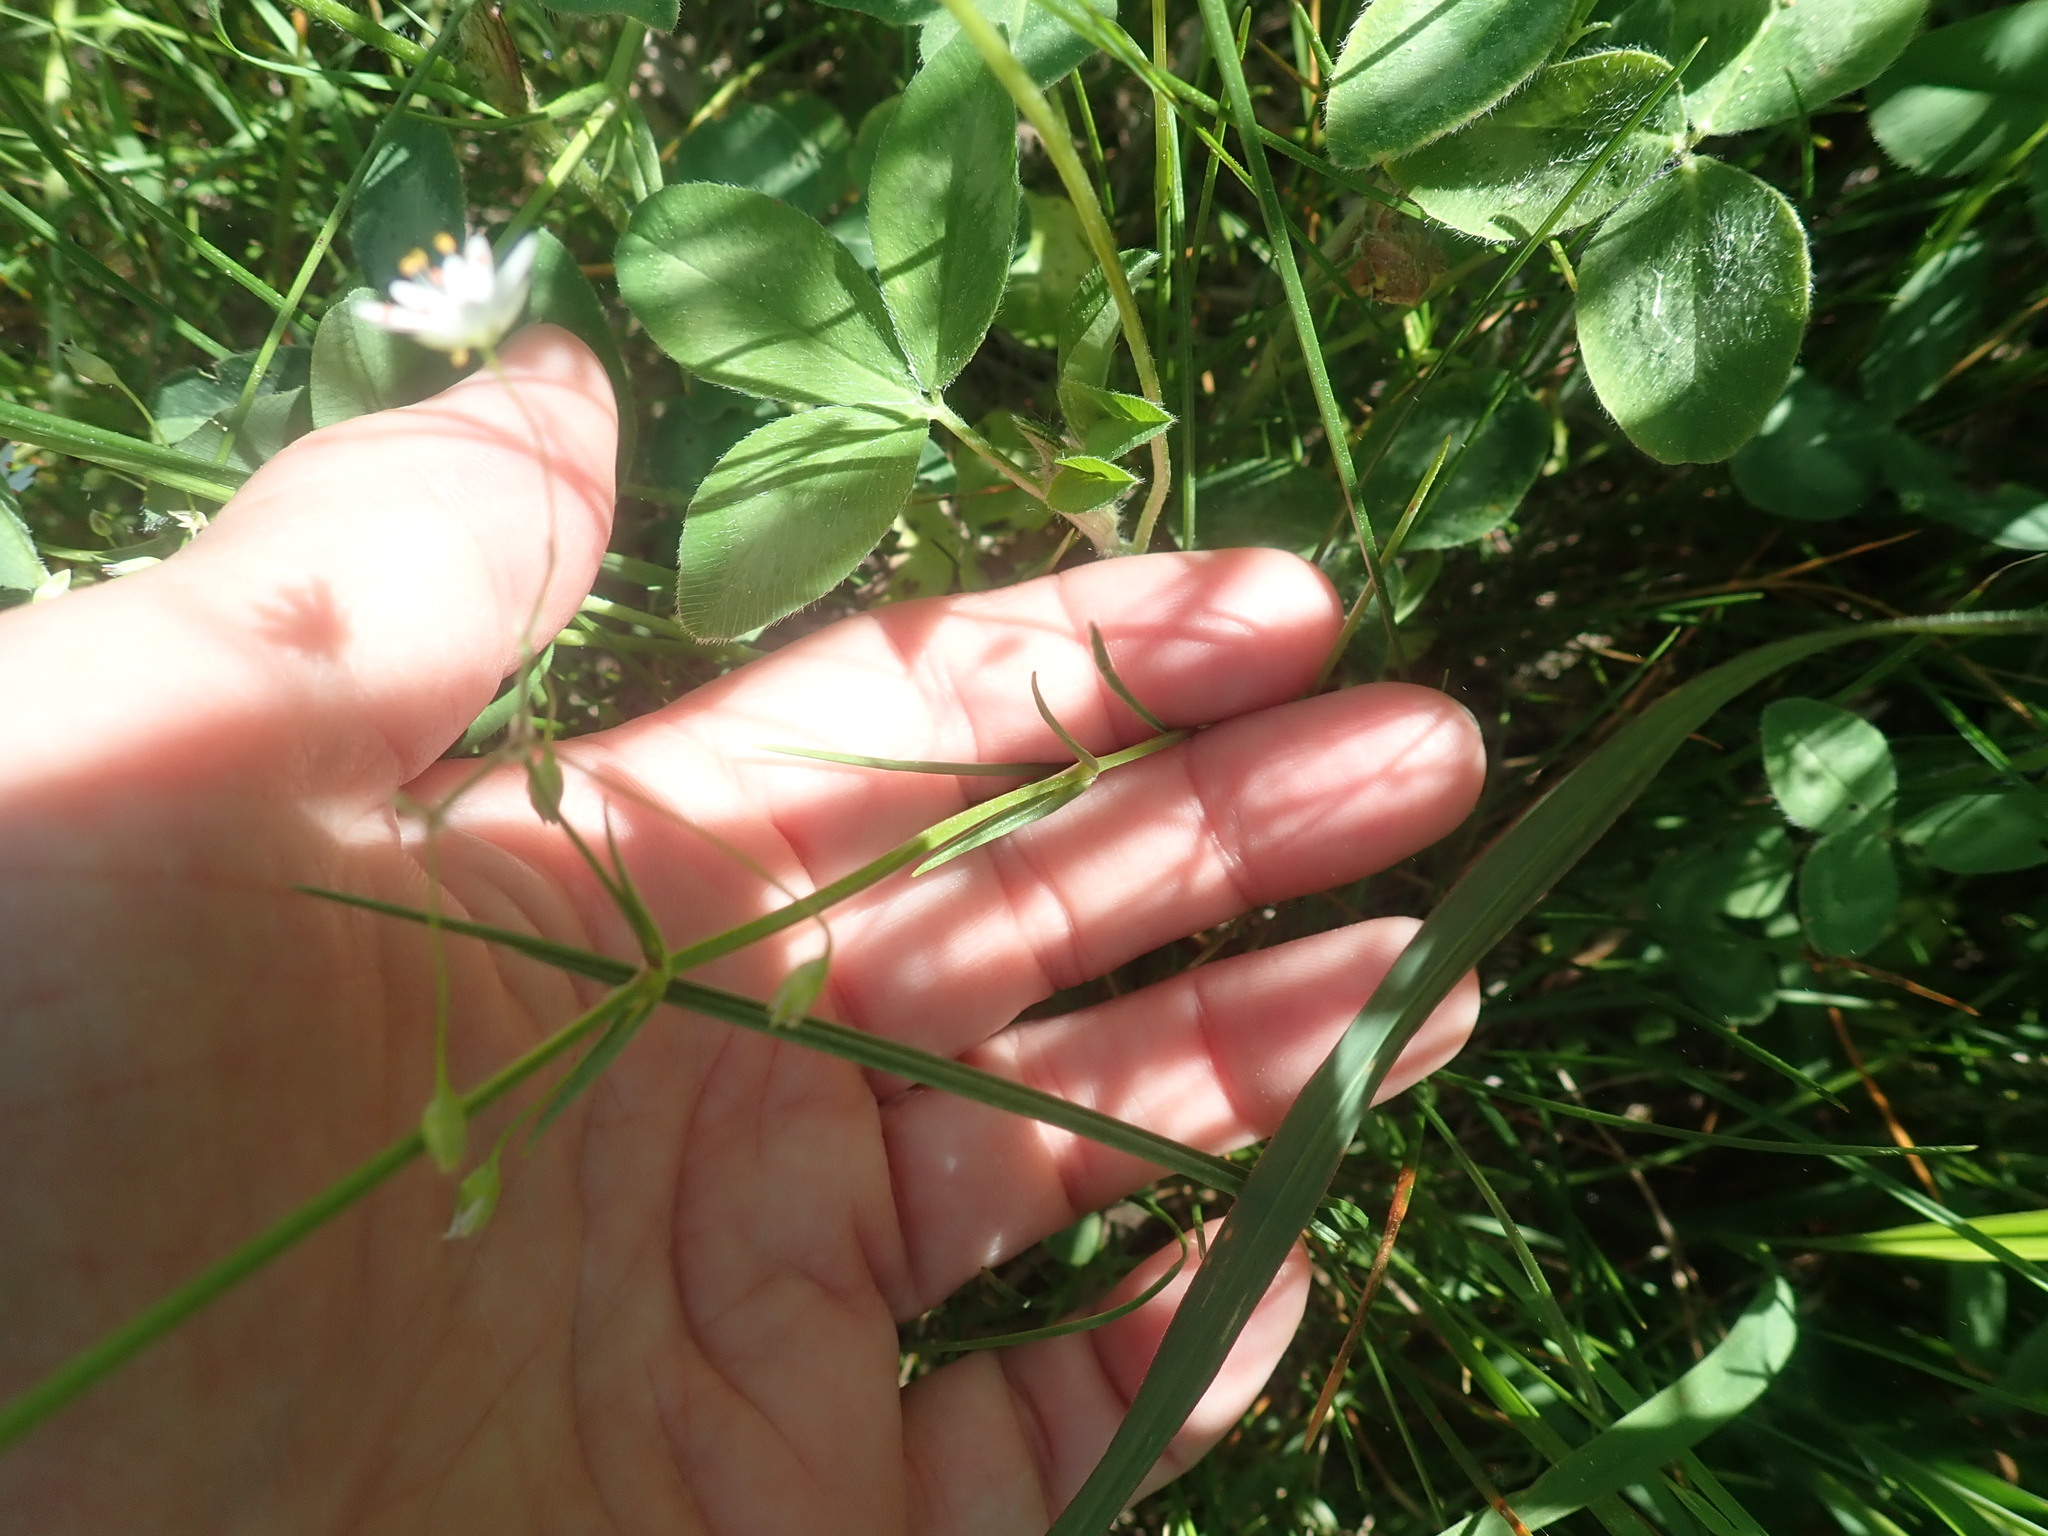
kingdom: Plantae
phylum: Tracheophyta
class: Magnoliopsida
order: Caryophyllales
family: Caryophyllaceae
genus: Stellaria
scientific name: Stellaria graminea
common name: Grass-like starwort
